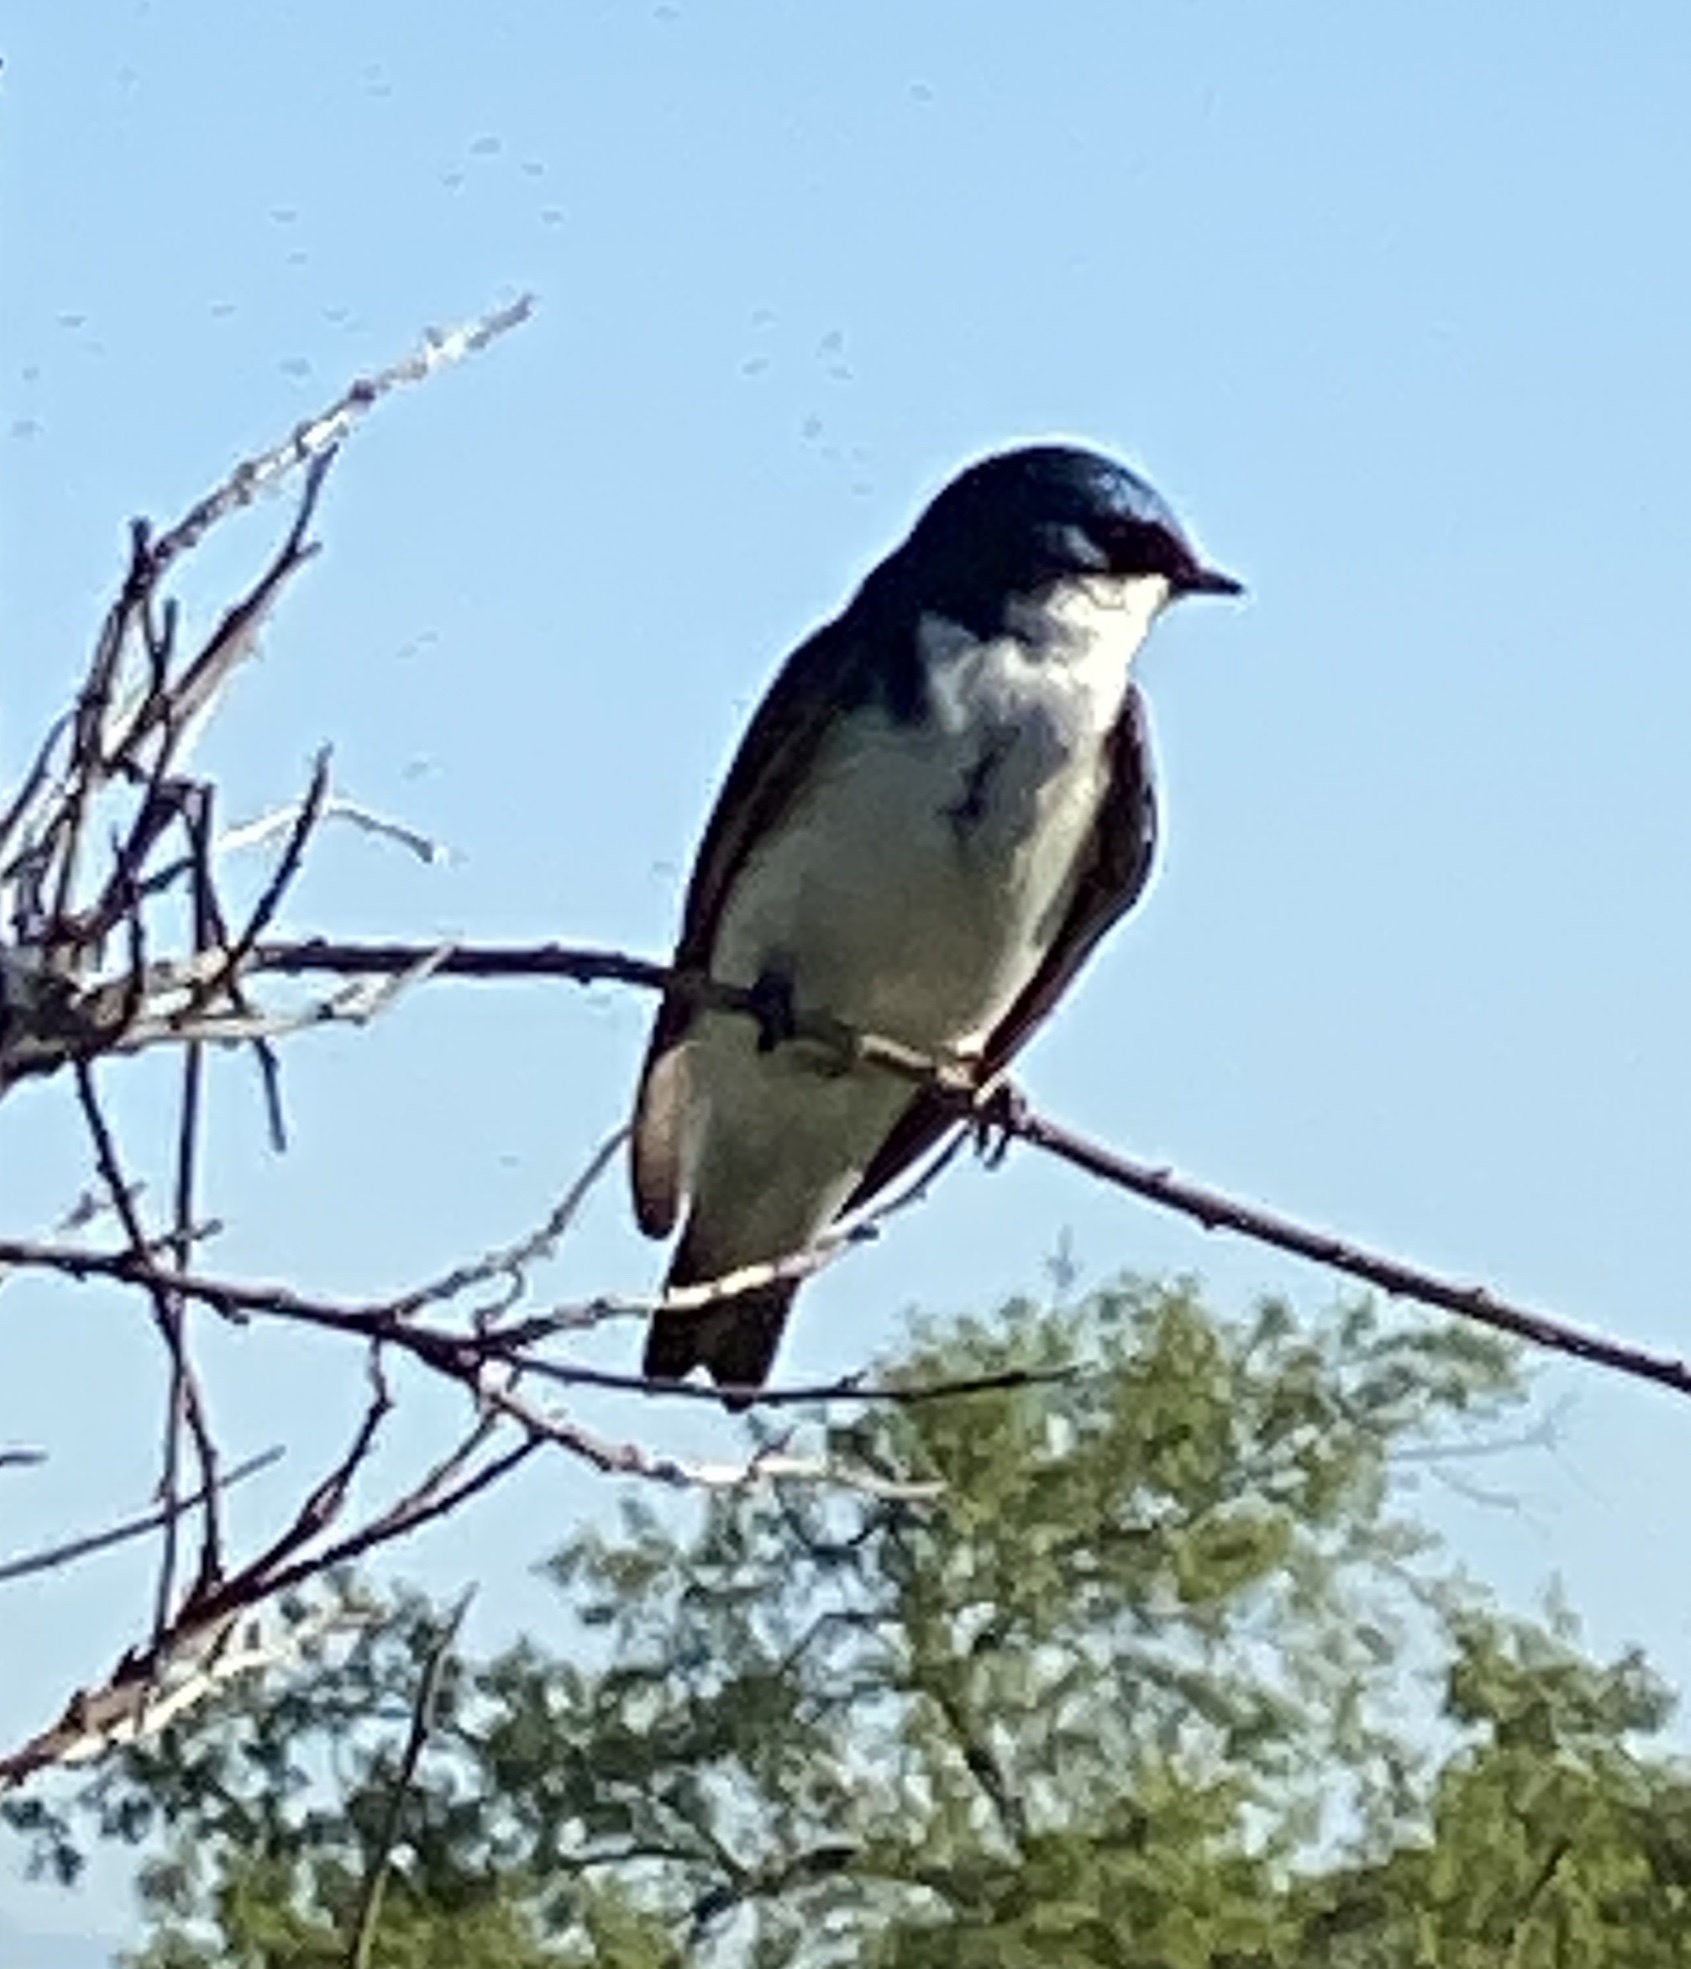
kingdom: Animalia
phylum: Chordata
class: Aves
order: Passeriformes
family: Hirundinidae
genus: Tachycineta
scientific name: Tachycineta bicolor
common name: Tree swallow
